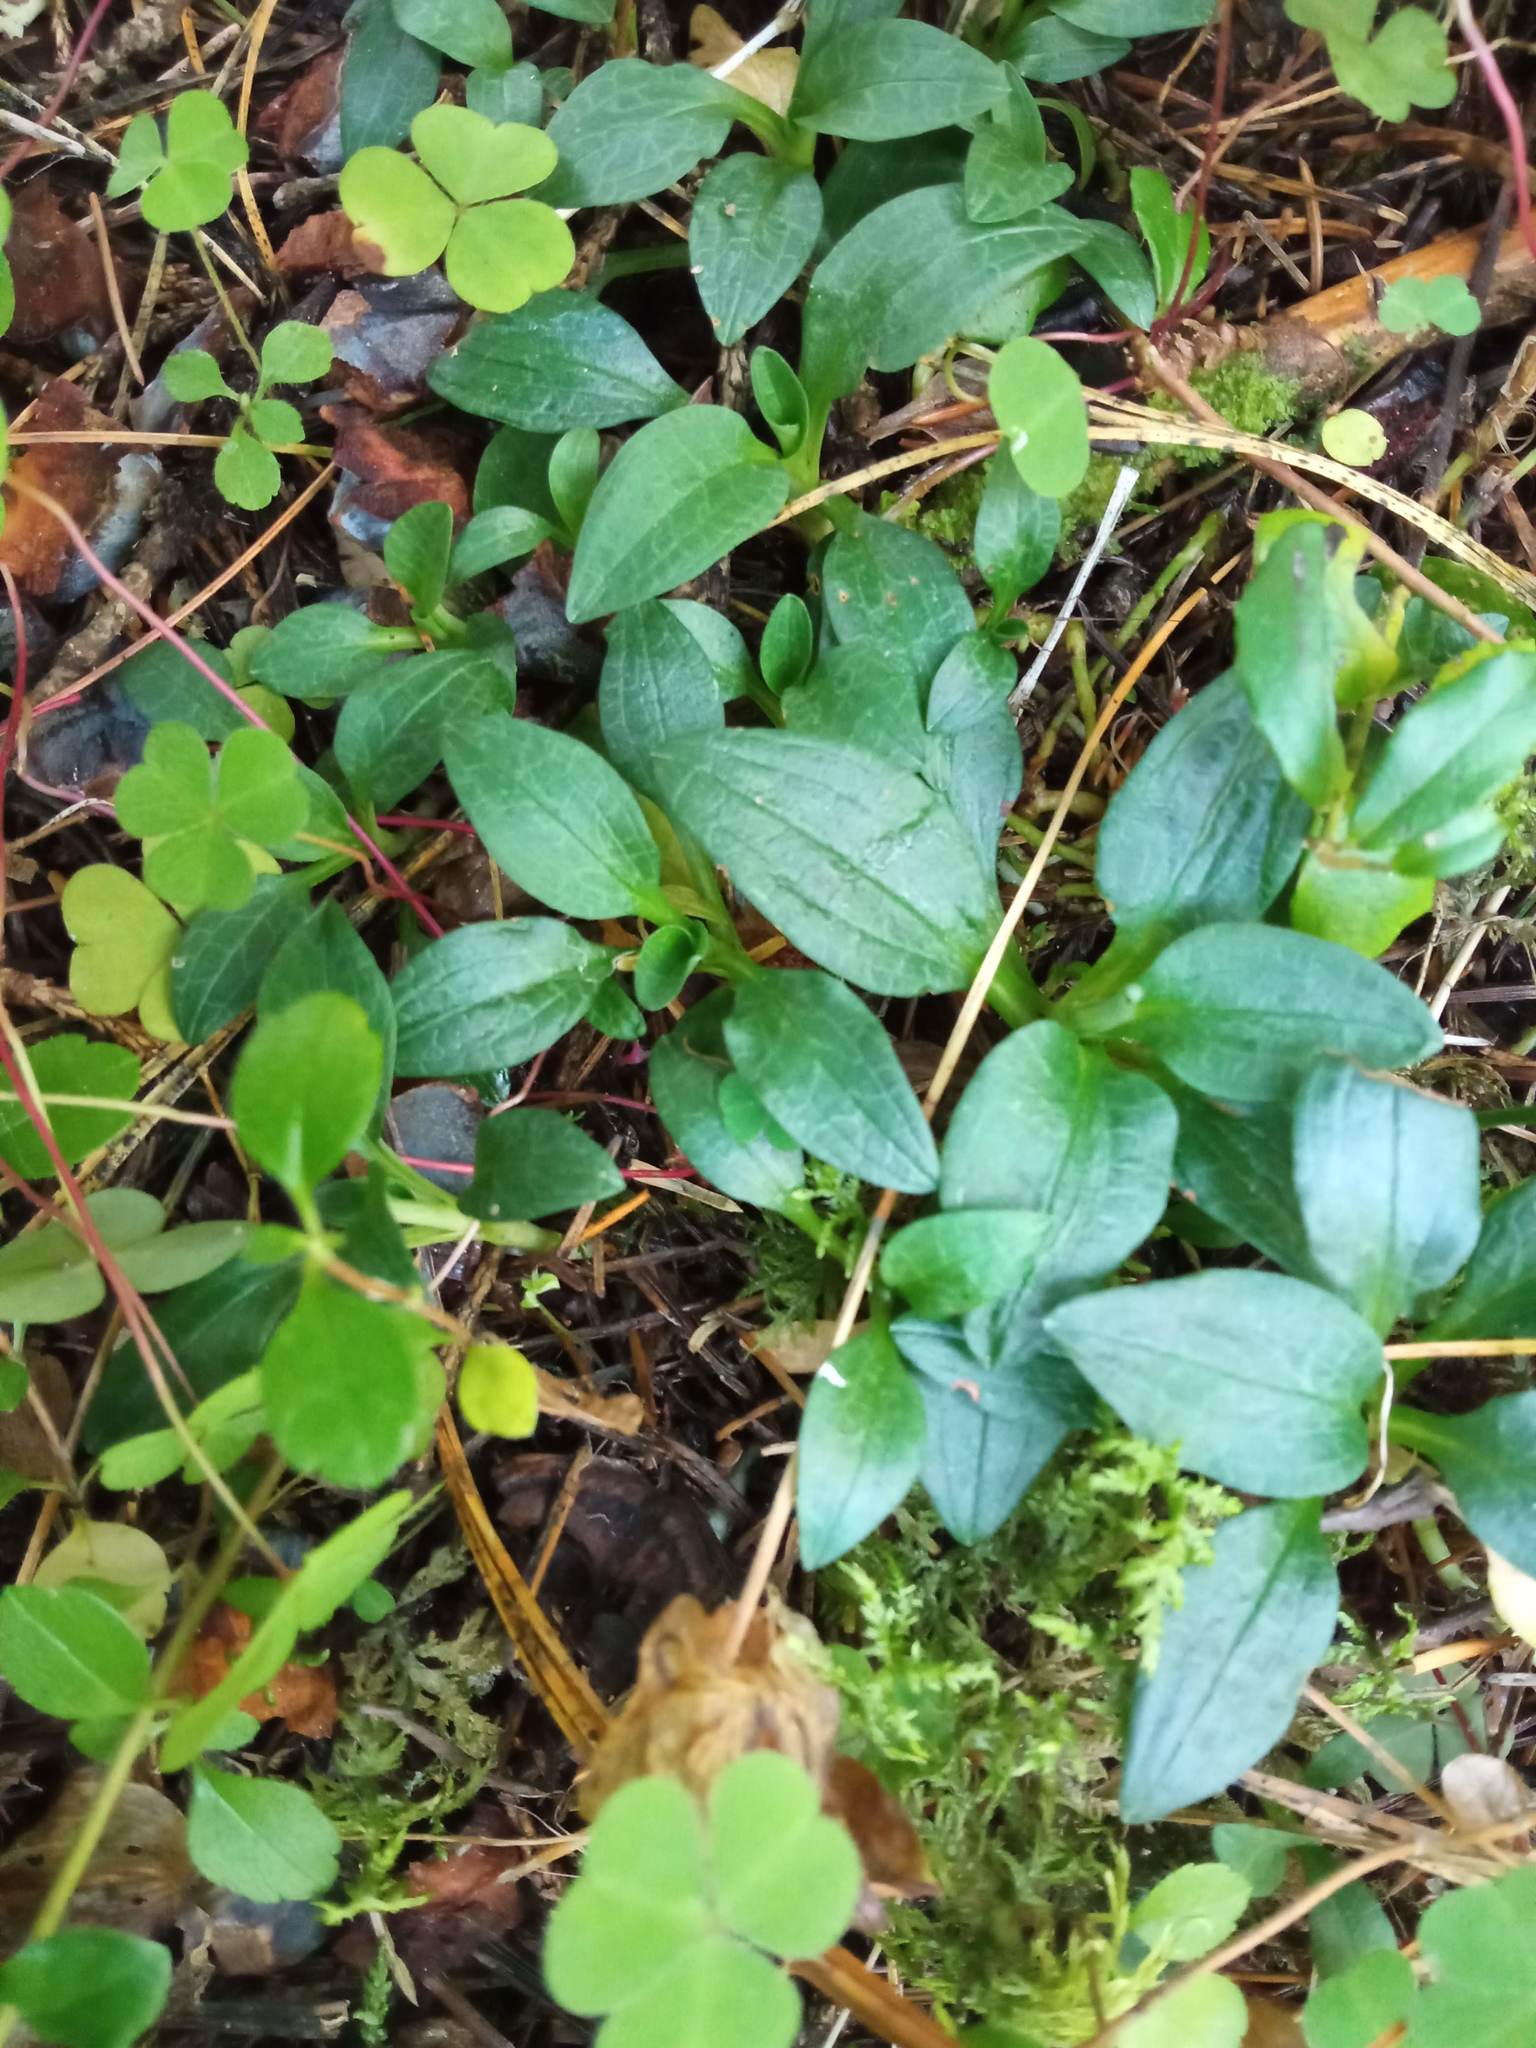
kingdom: Plantae
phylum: Tracheophyta
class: Liliopsida
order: Asparagales
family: Orchidaceae
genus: Goodyera
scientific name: Goodyera repens
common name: Creeping lady's-tresses
